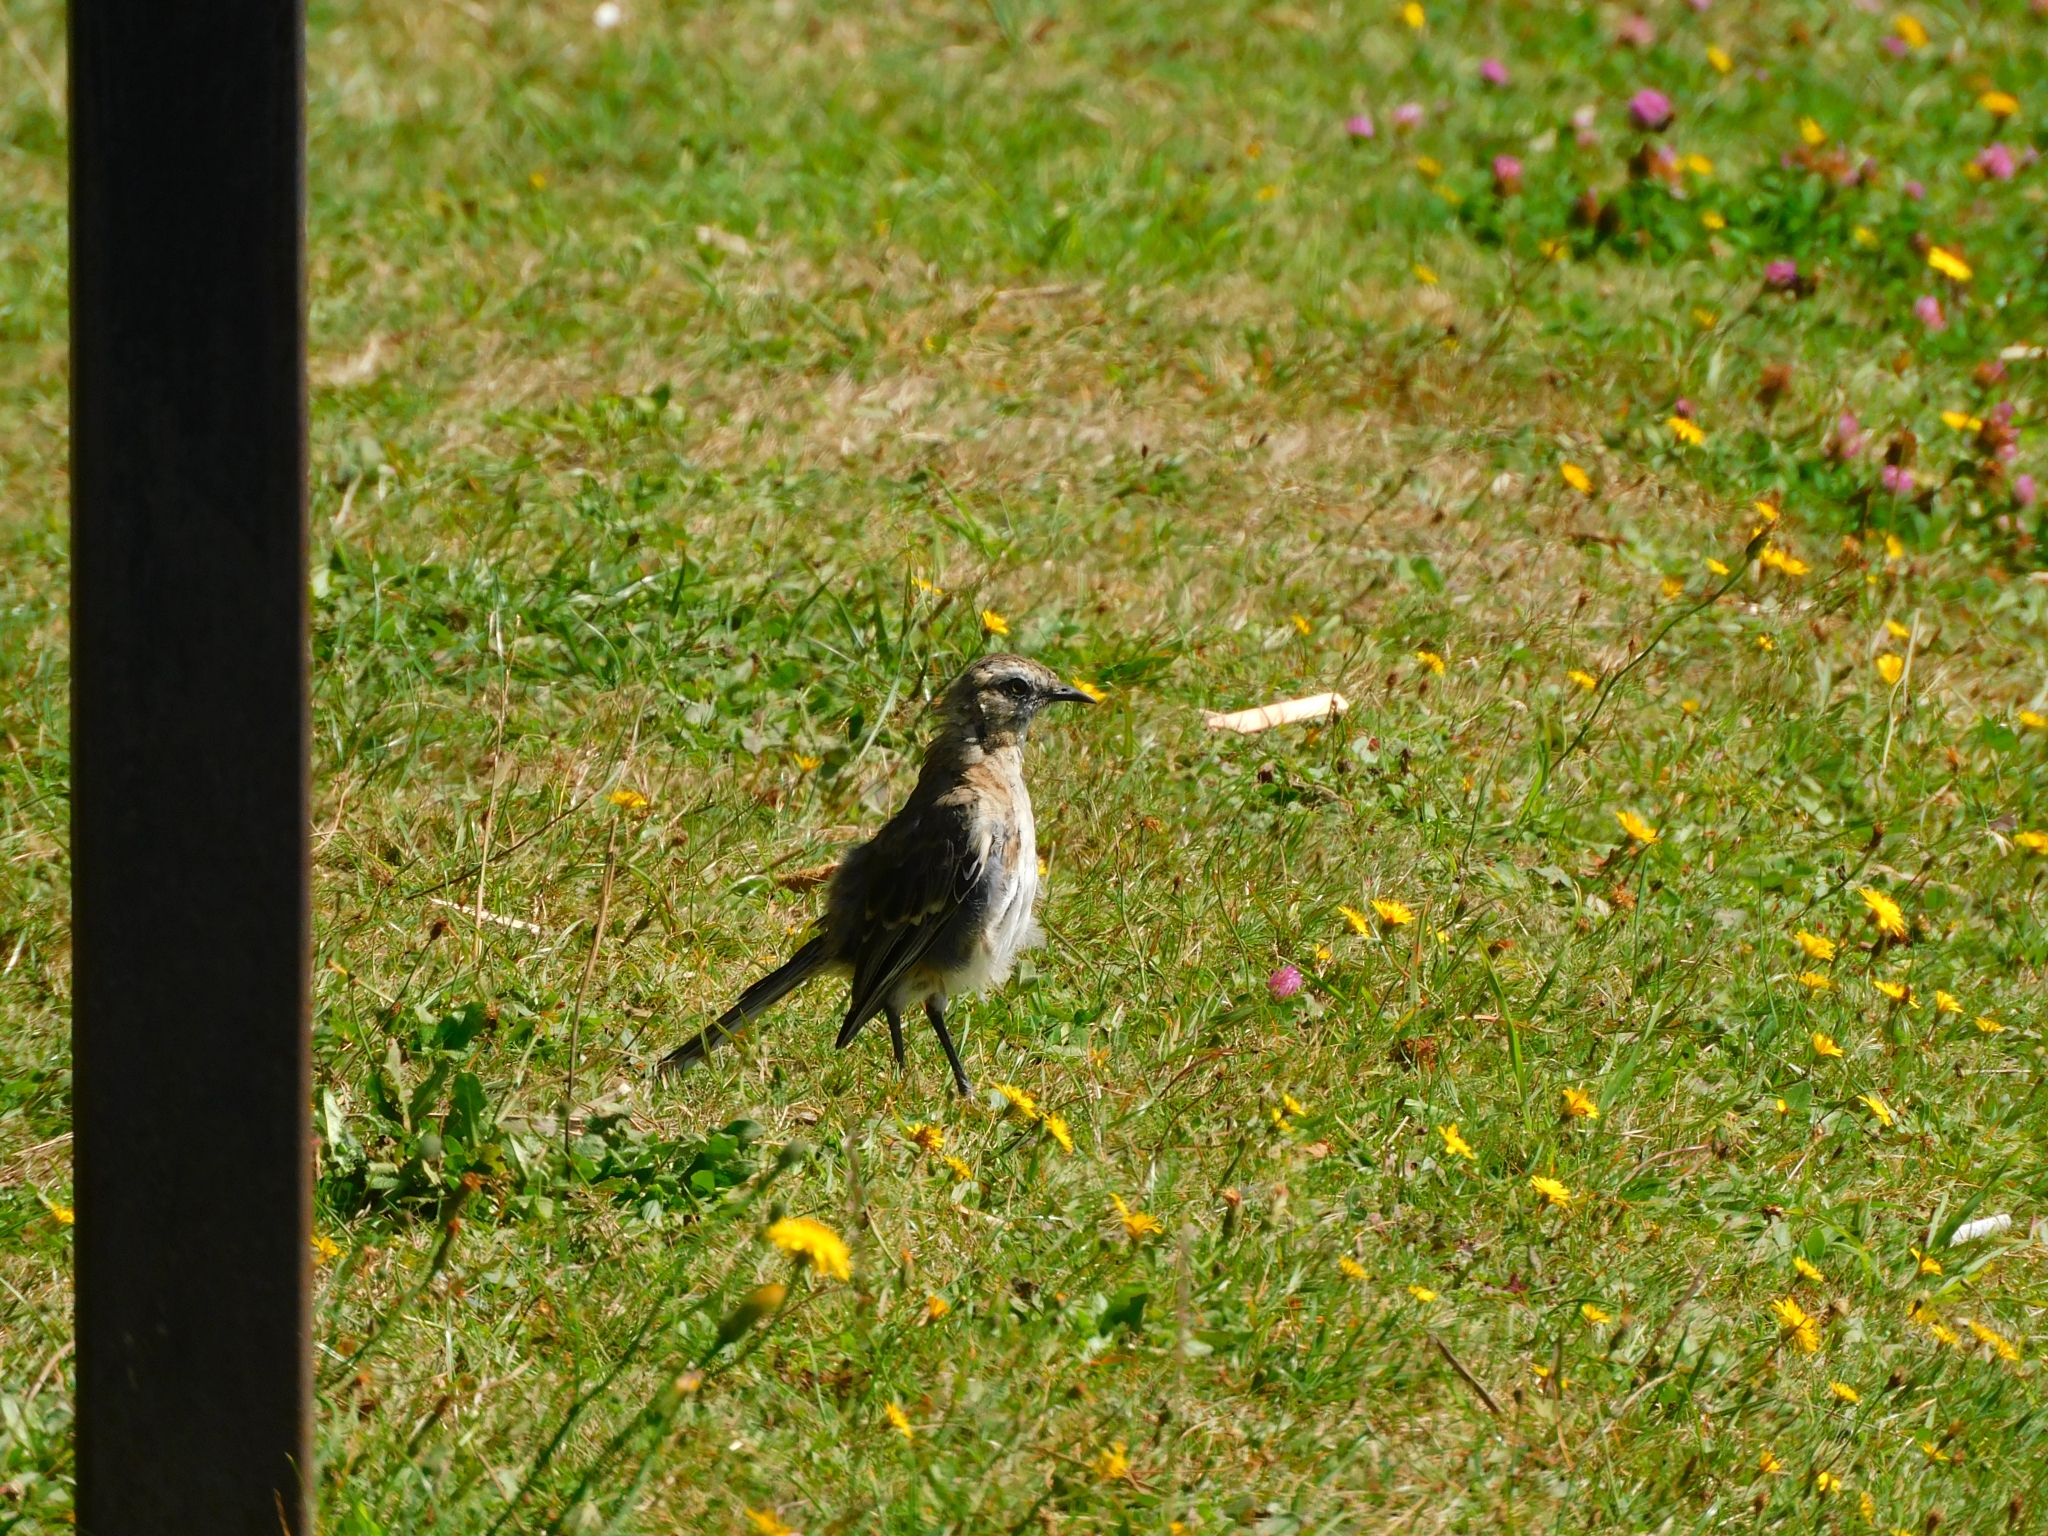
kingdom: Animalia
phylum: Chordata
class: Aves
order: Passeriformes
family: Mimidae
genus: Mimus
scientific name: Mimus thenca
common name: Chilean mockingbird
